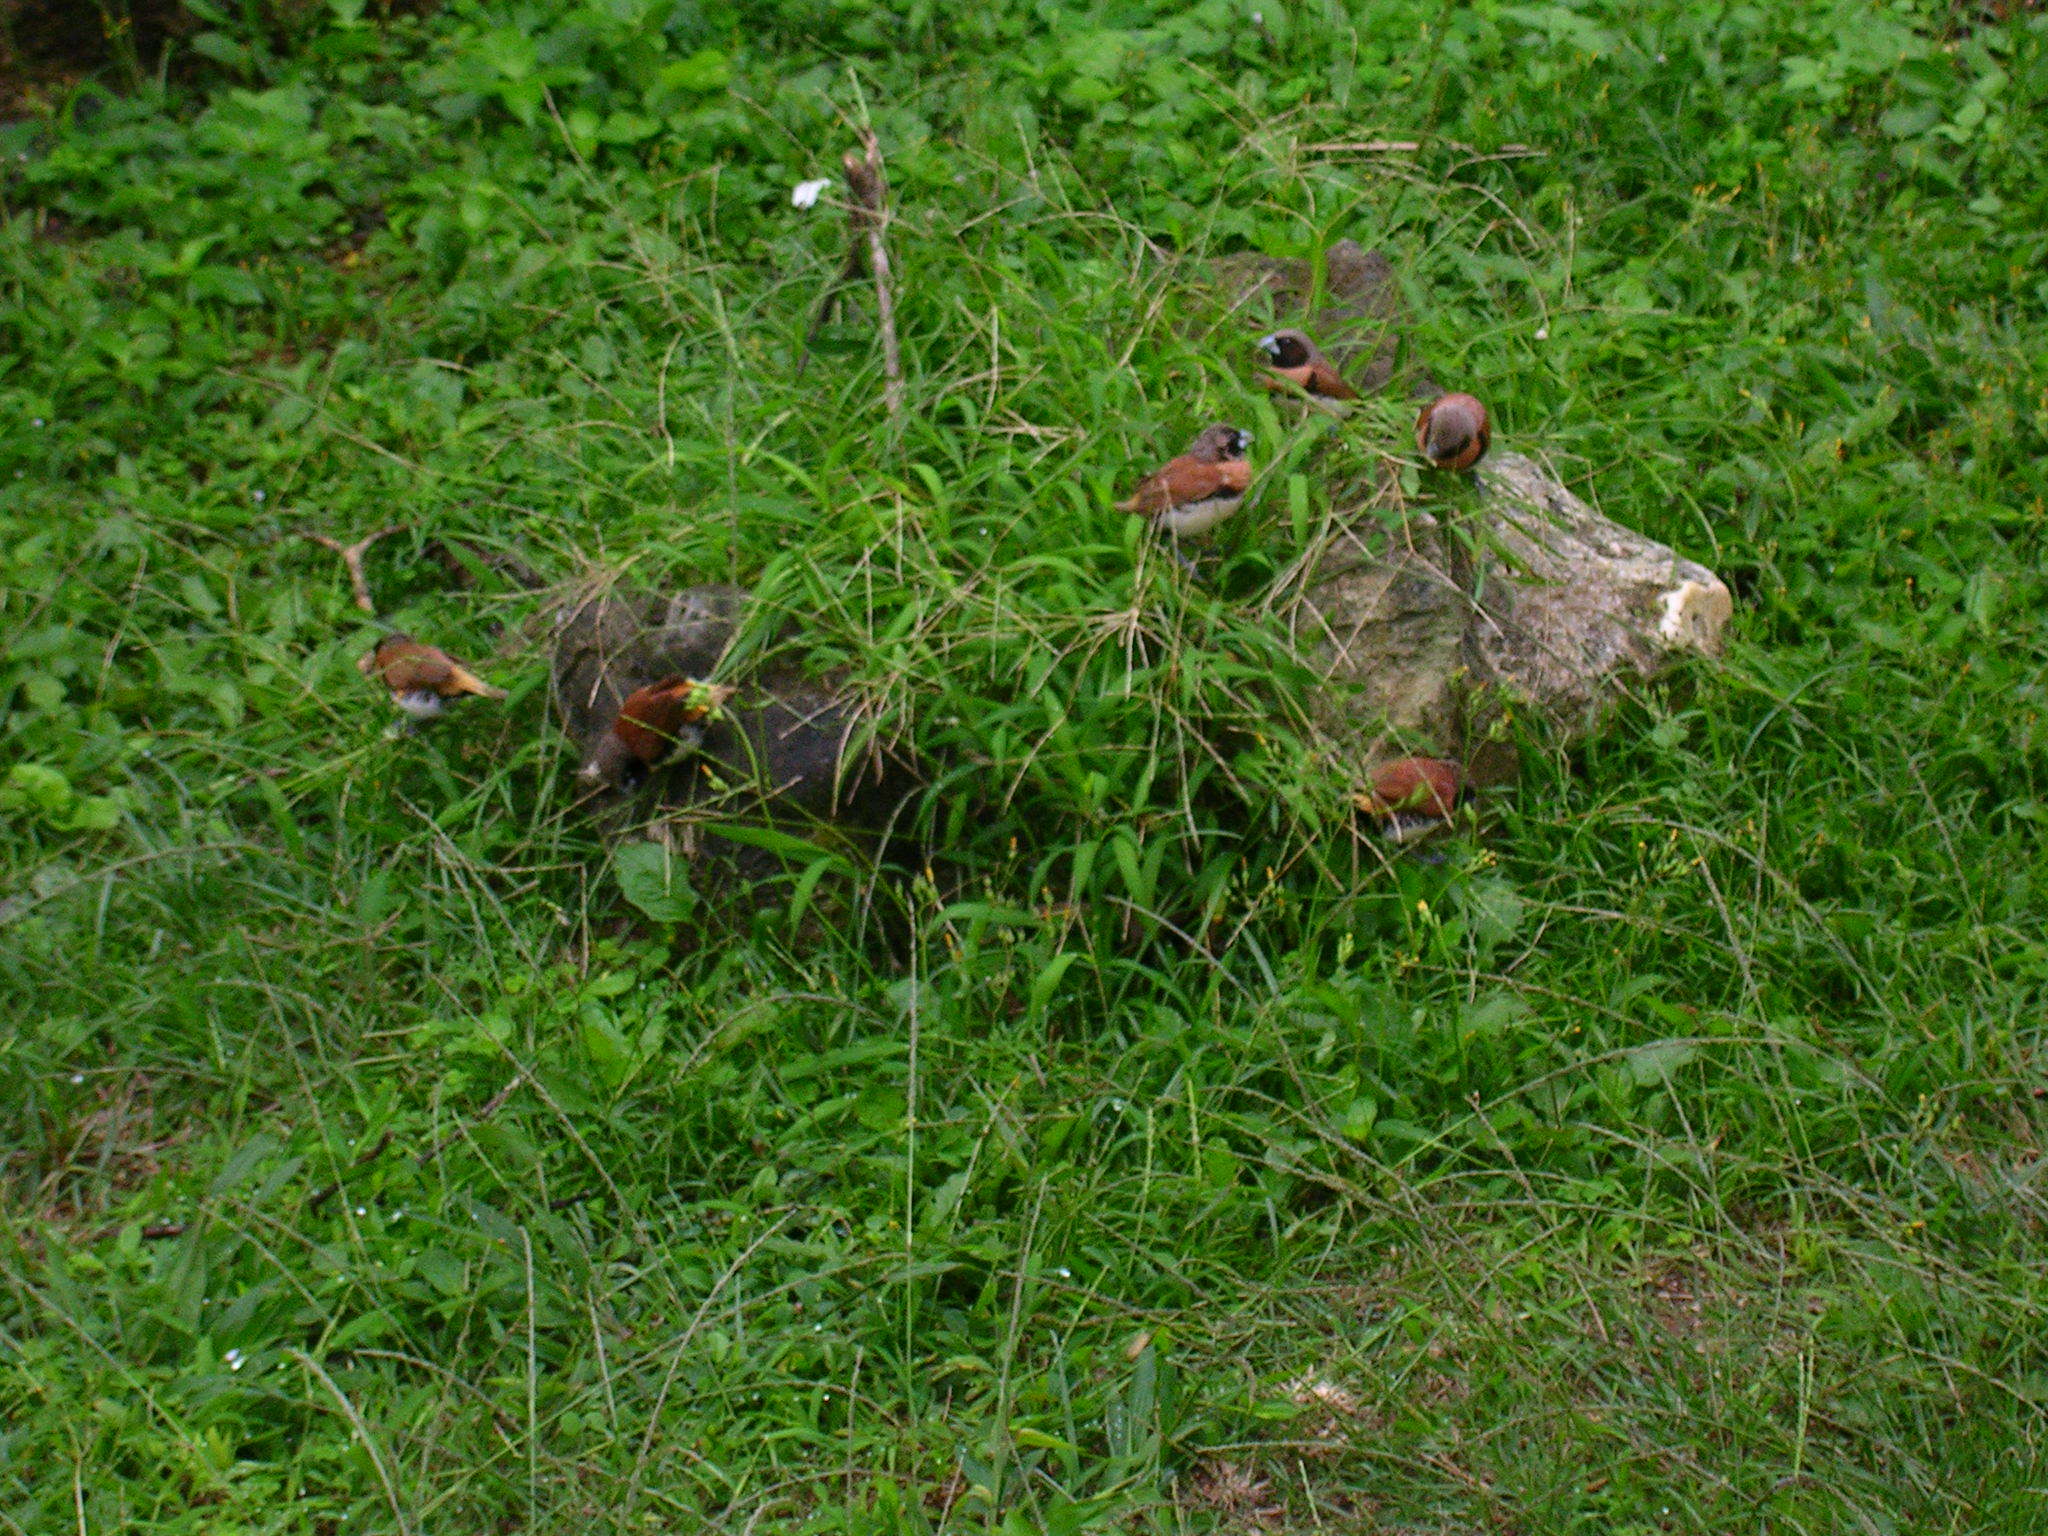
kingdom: Animalia
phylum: Chordata
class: Aves
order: Passeriformes
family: Estrildidae
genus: Lonchura
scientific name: Lonchura castaneothorax
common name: Chestnut-breasted mannikin
